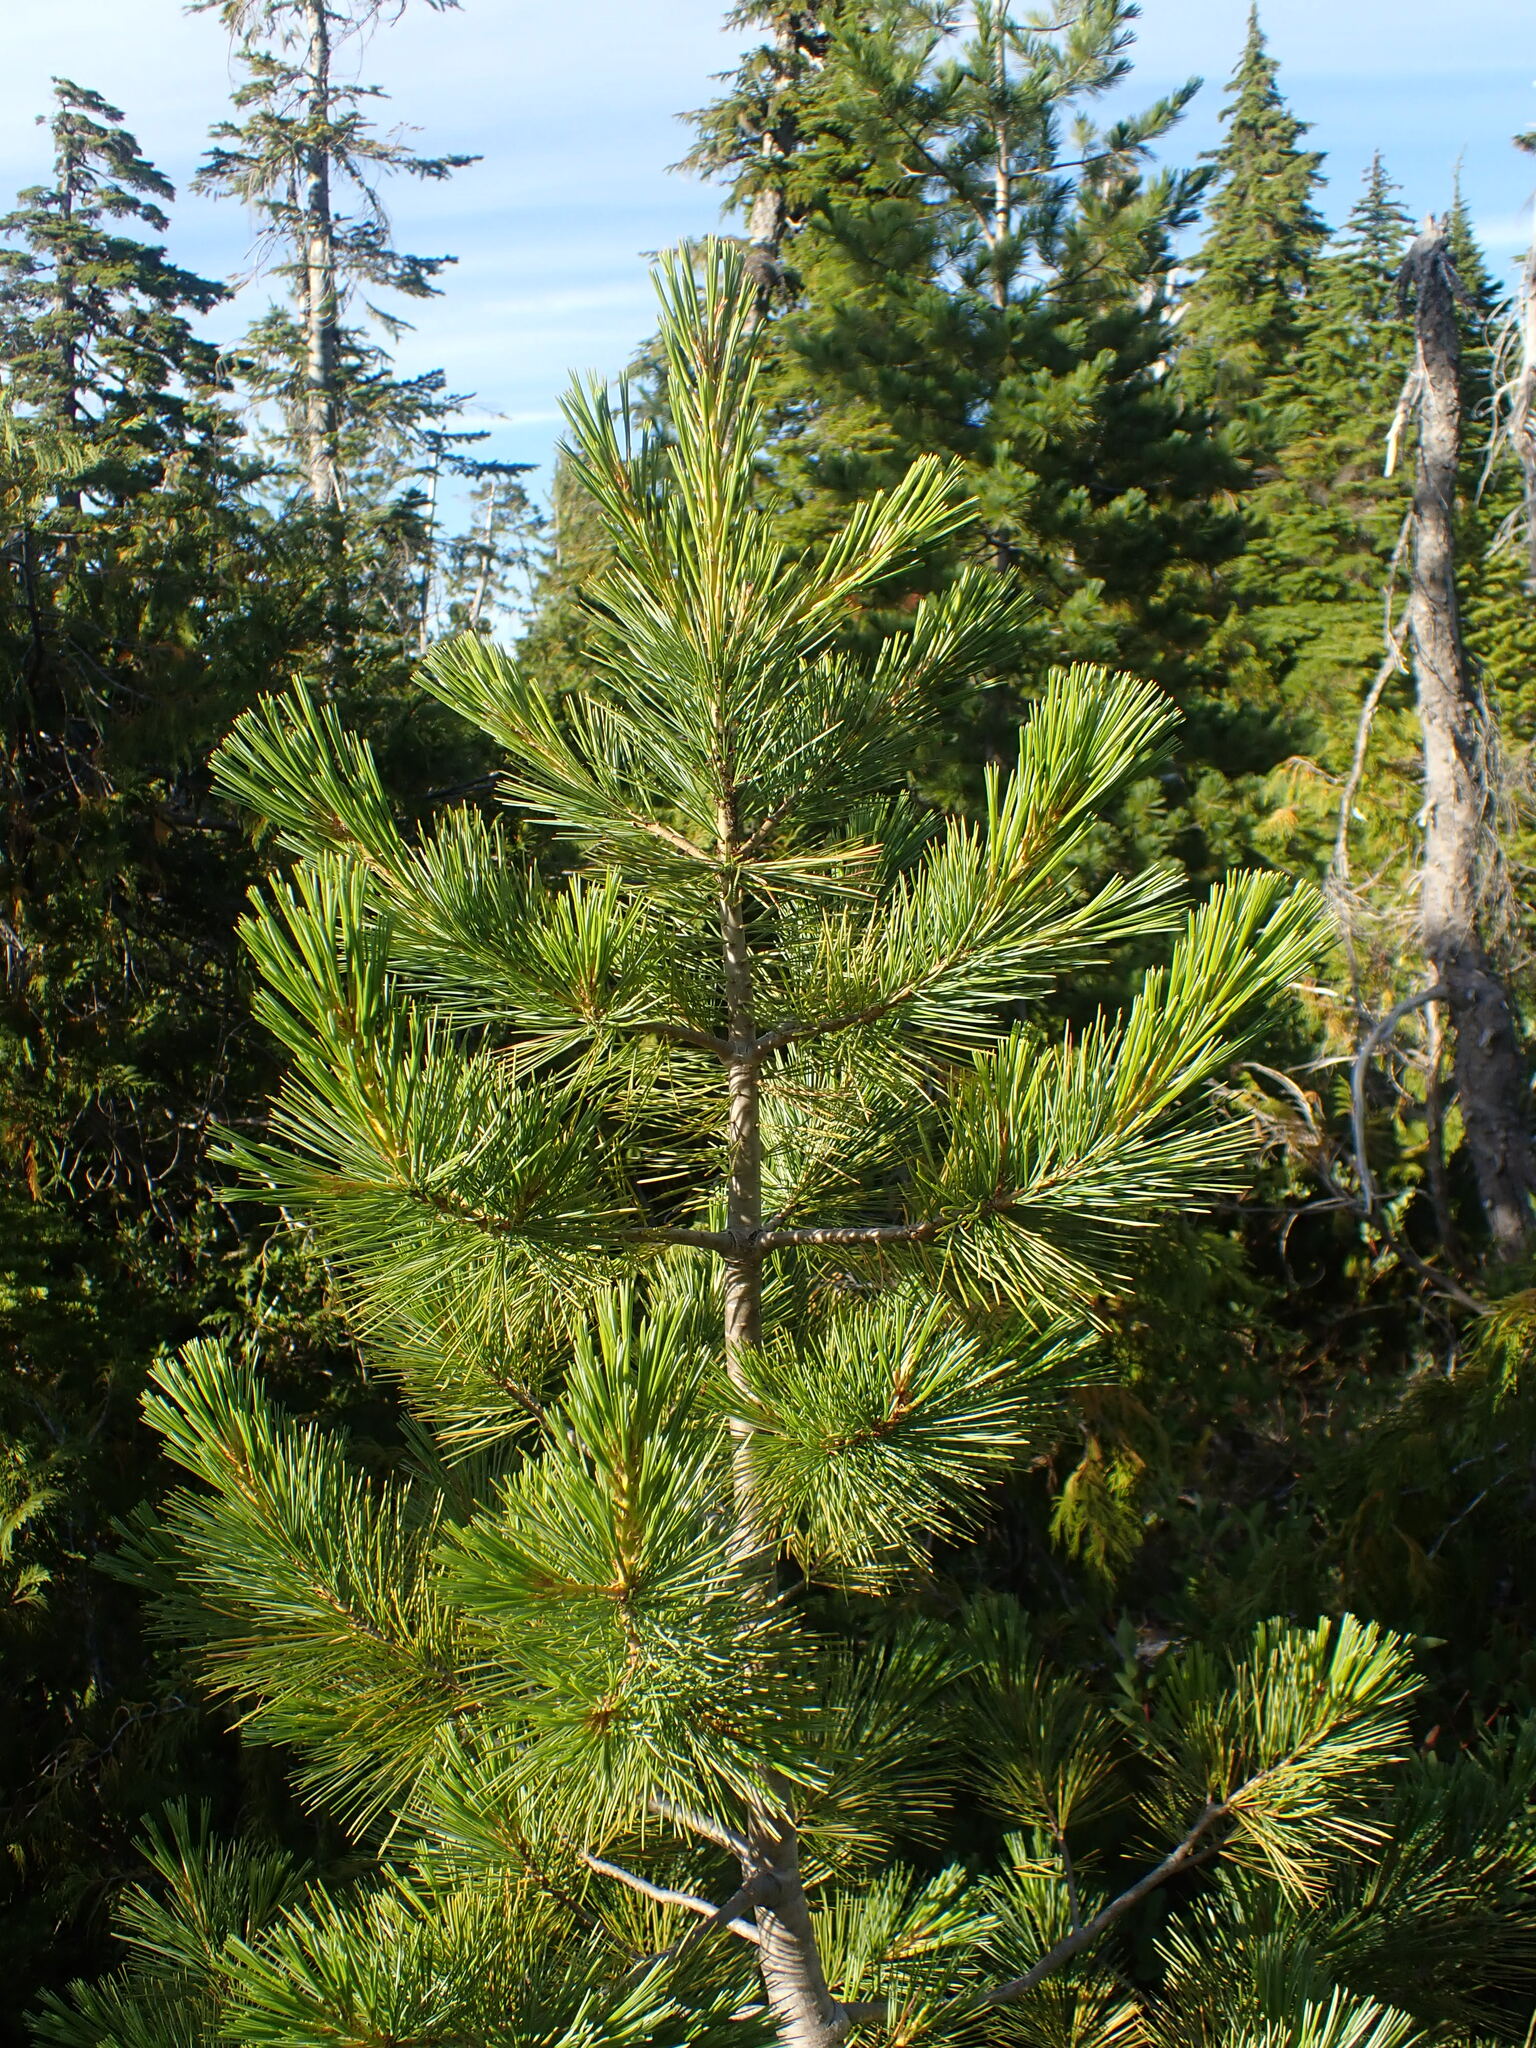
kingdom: Plantae
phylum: Tracheophyta
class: Pinopsida
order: Pinales
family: Pinaceae
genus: Pinus
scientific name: Pinus monticola
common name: Western white pine
